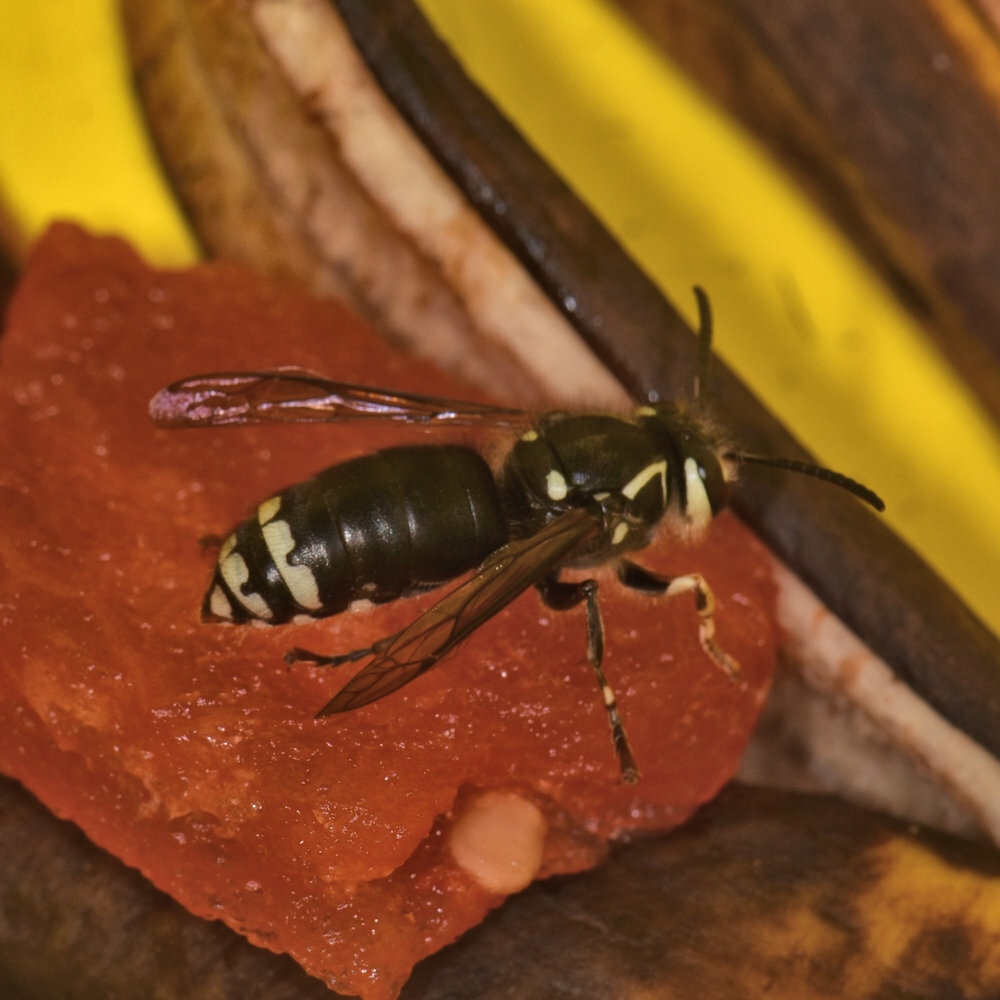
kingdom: Animalia
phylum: Arthropoda
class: Insecta
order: Hymenoptera
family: Vespidae
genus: Dolichovespula
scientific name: Dolichovespula maculata
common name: Bald-faced hornet
